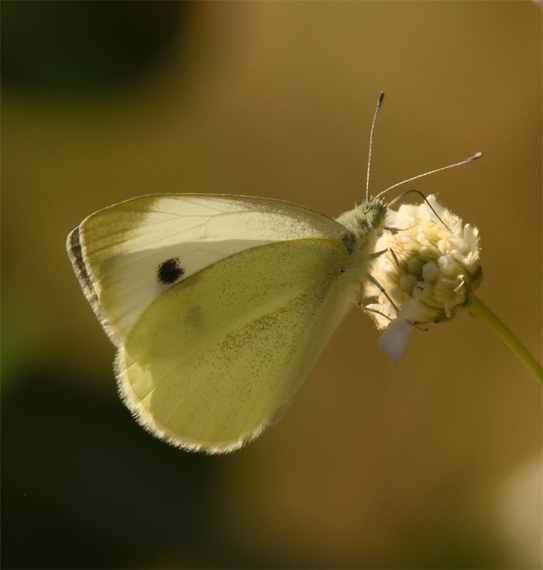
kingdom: Animalia
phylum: Arthropoda
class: Insecta
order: Lepidoptera
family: Pieridae
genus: Pieris
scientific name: Pieris mannii
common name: Southern small white
